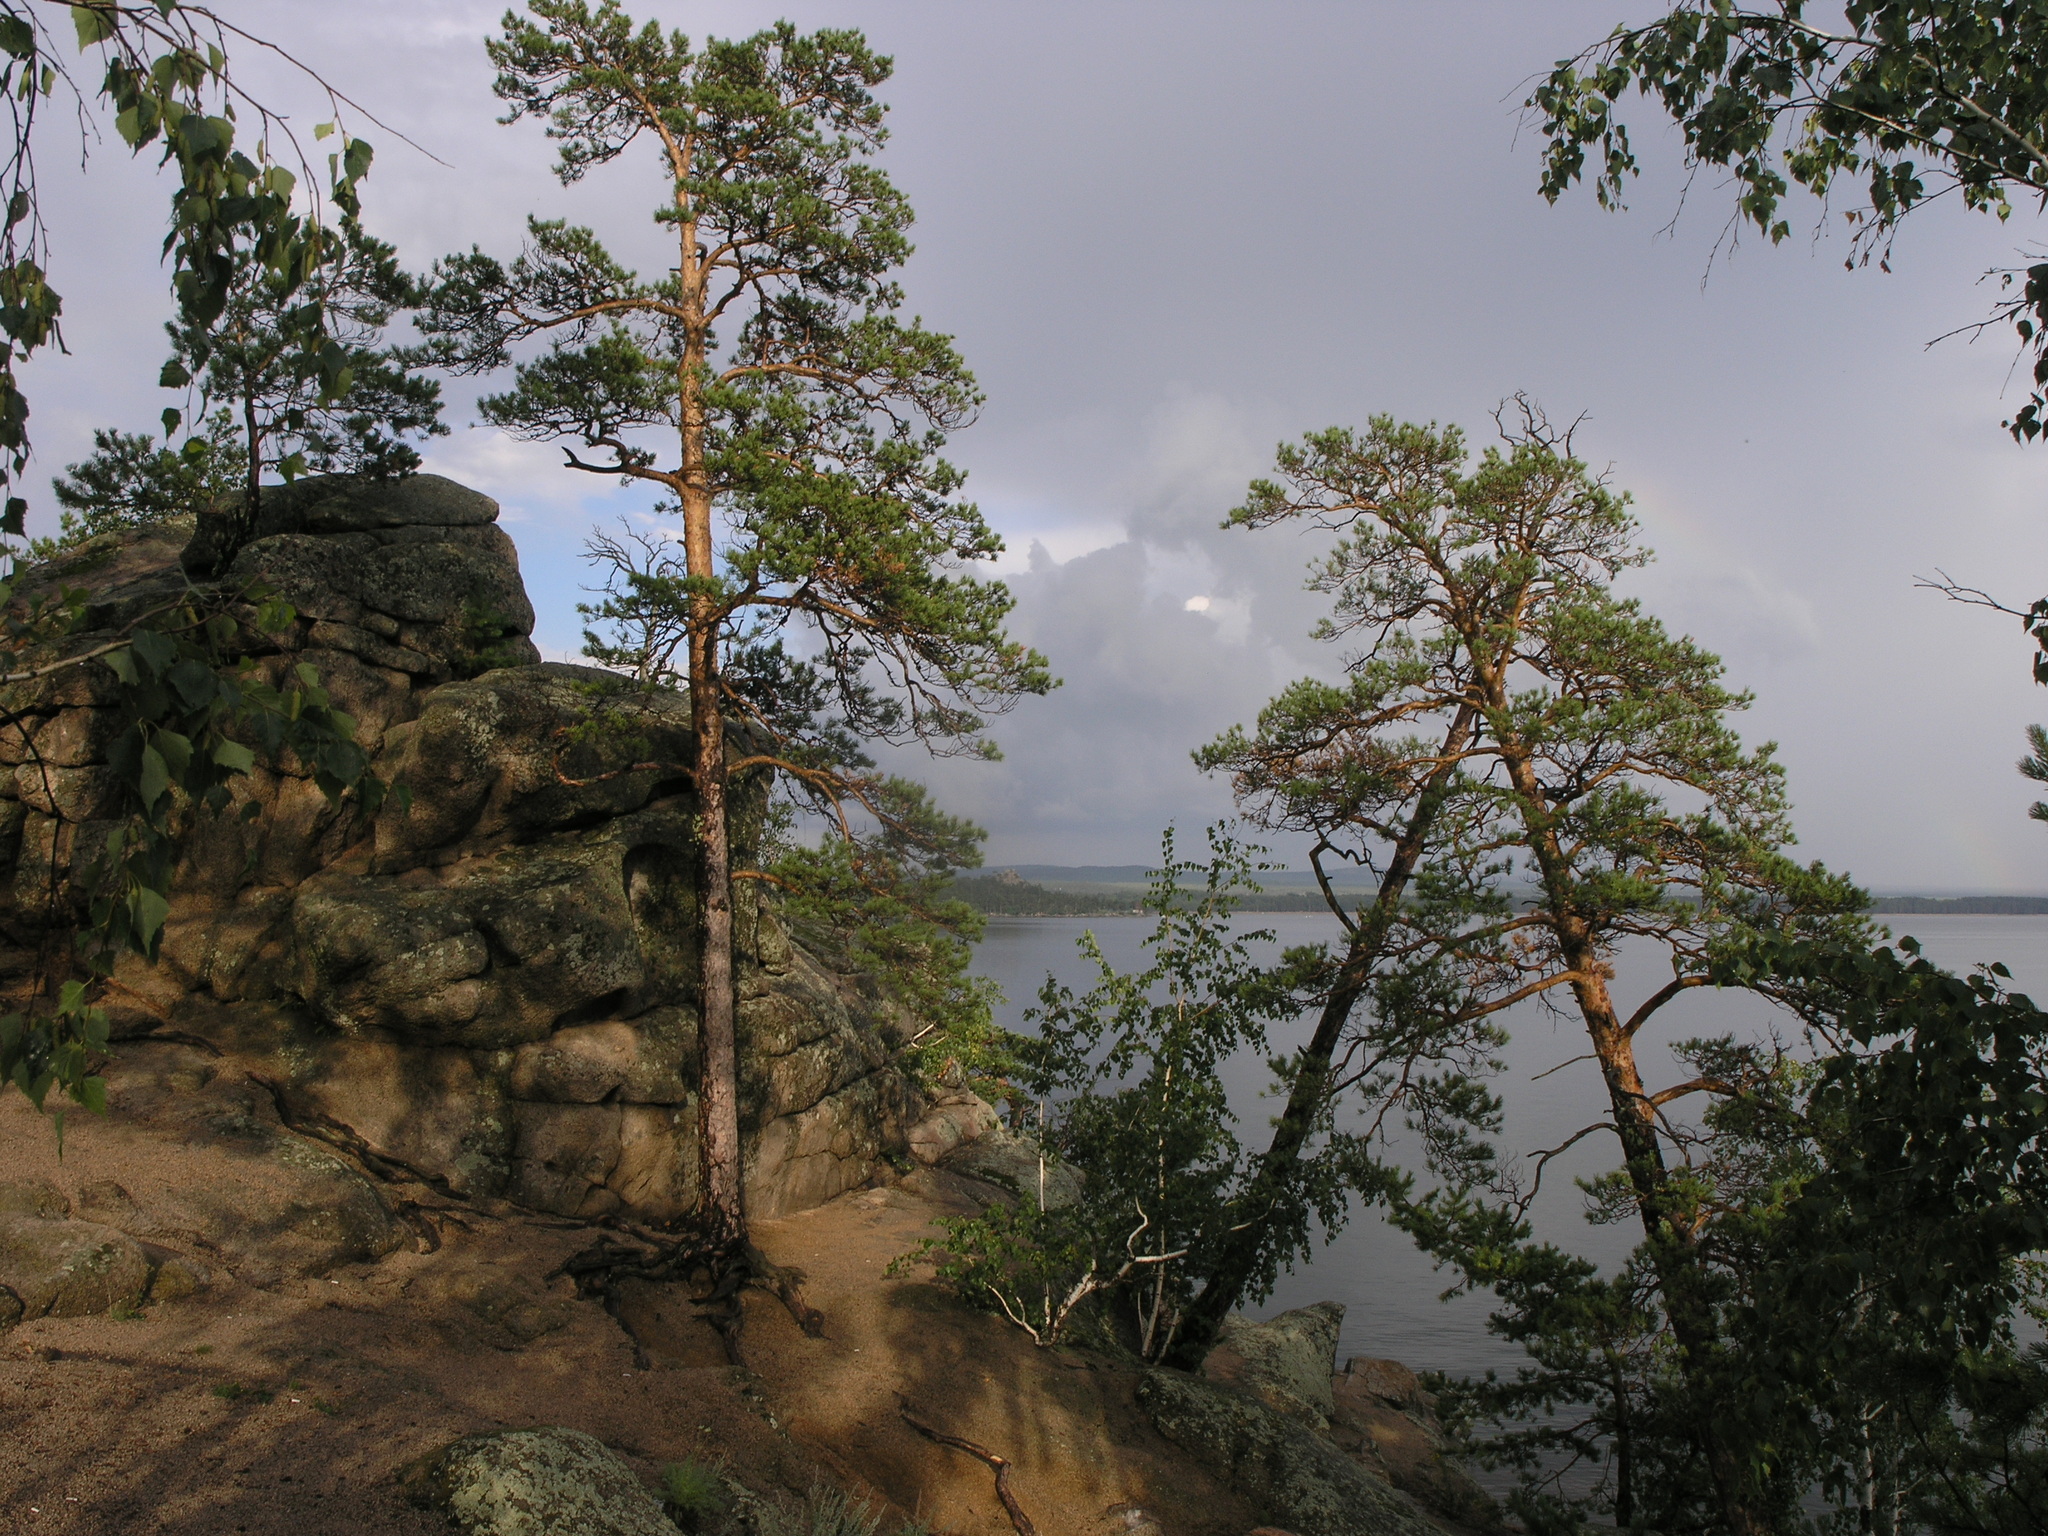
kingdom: Plantae
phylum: Tracheophyta
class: Pinopsida
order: Pinales
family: Pinaceae
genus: Pinus
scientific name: Pinus sylvestris
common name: Scots pine
